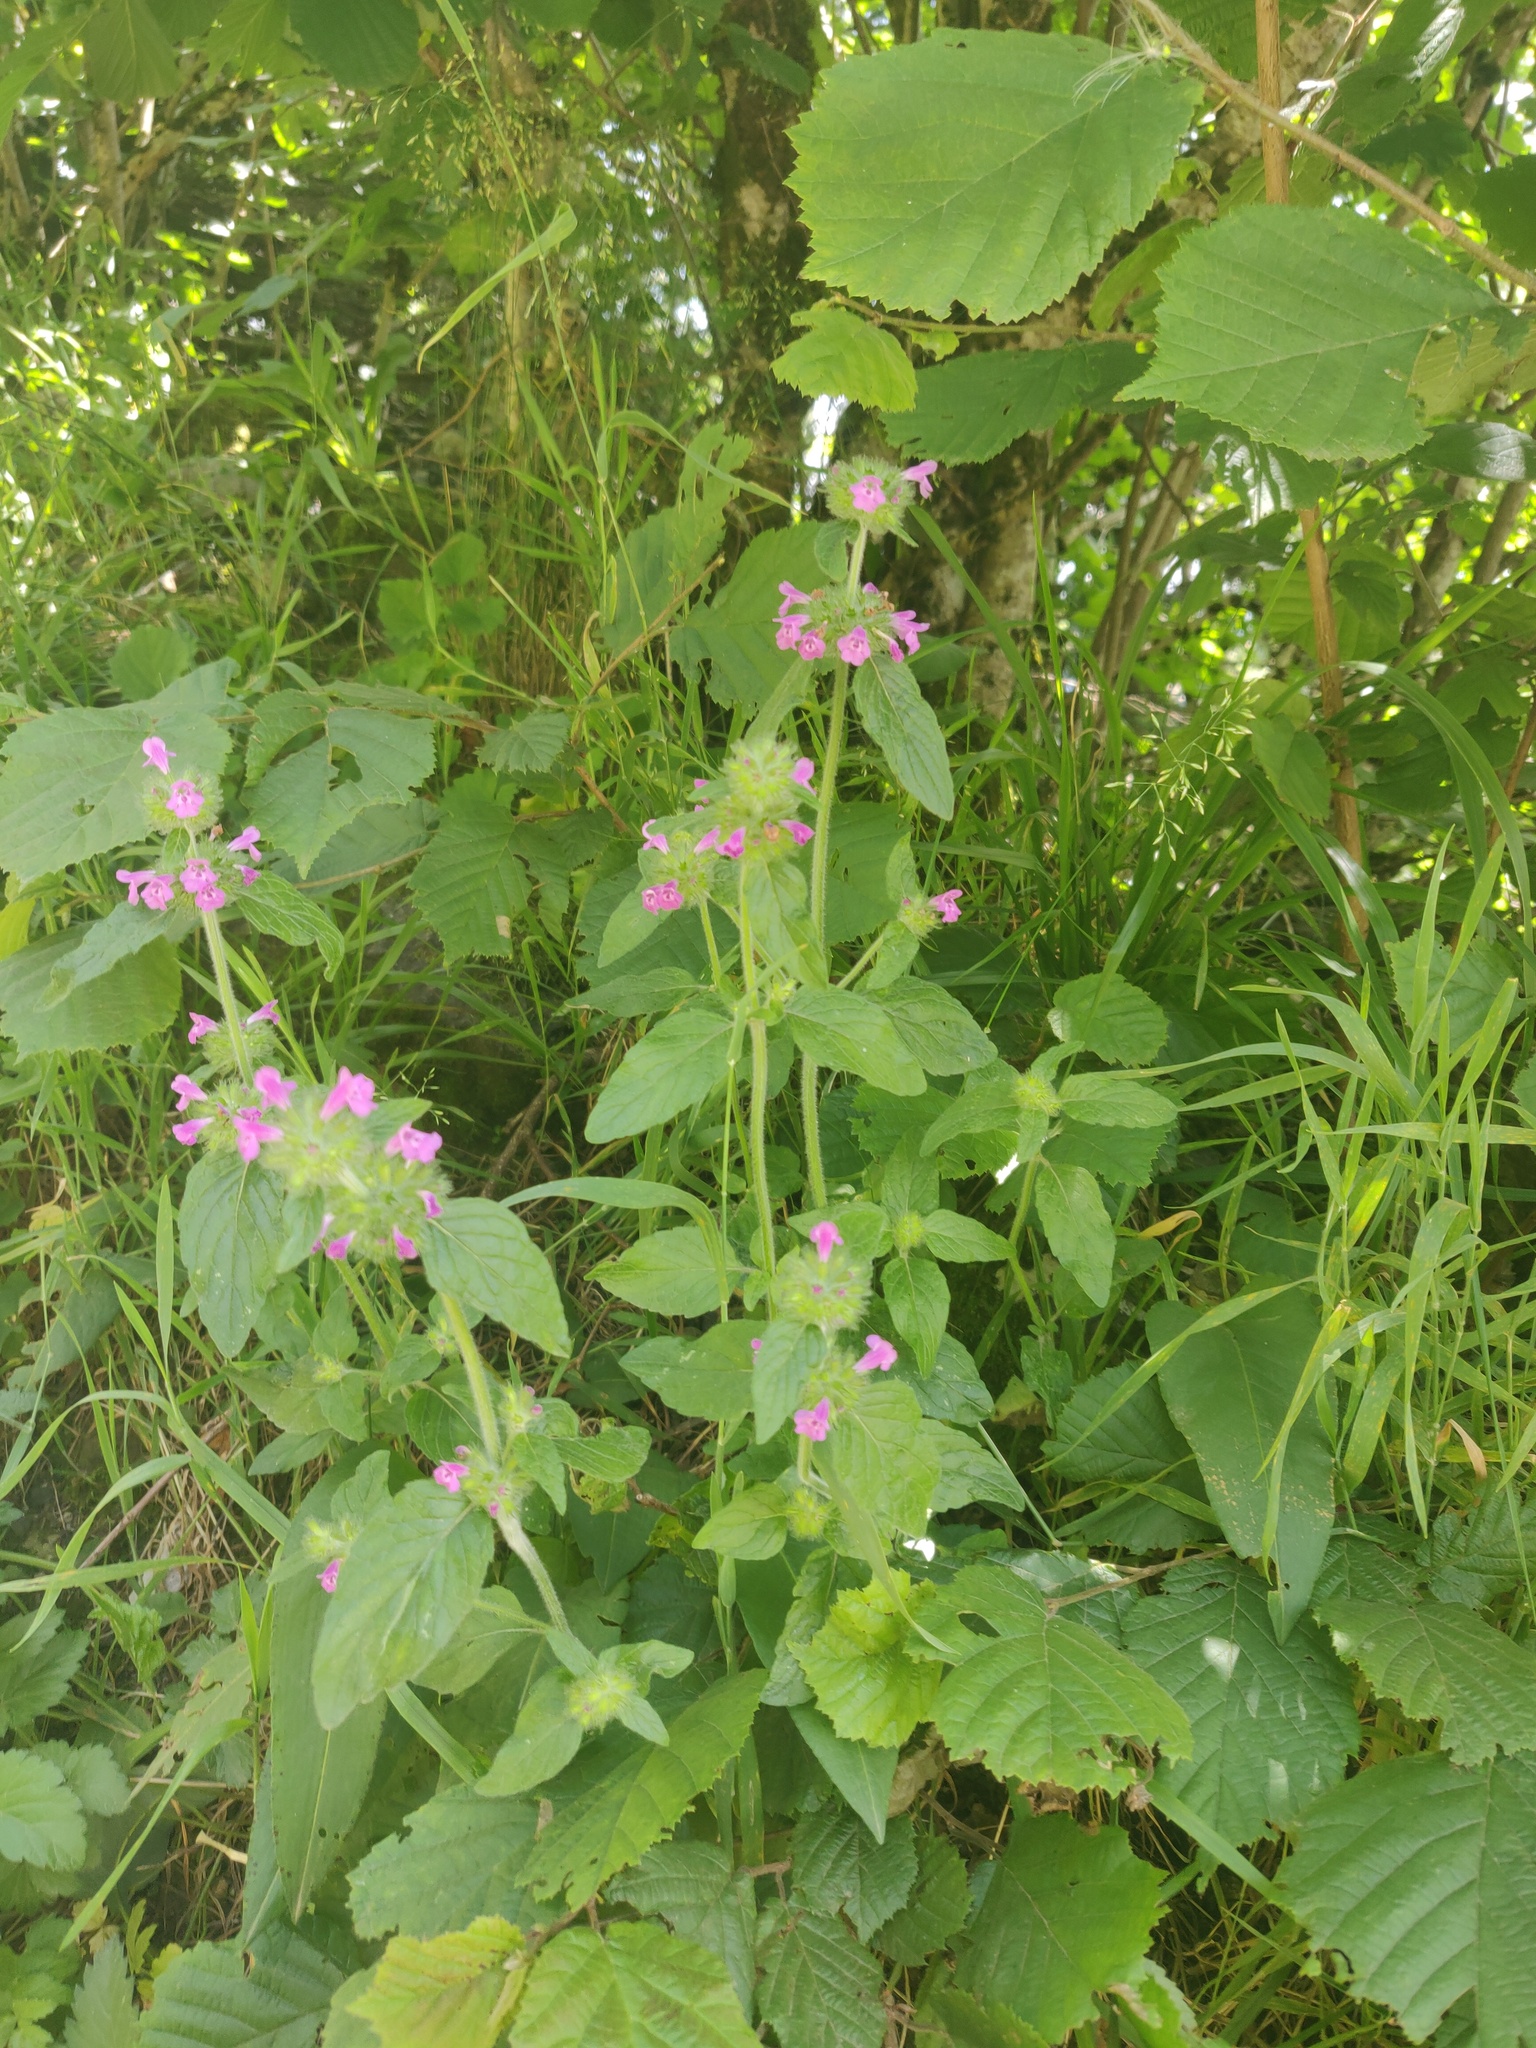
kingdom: Plantae
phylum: Tracheophyta
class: Magnoliopsida
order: Lamiales
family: Lamiaceae
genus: Clinopodium
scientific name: Clinopodium vulgare
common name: Wild basil
